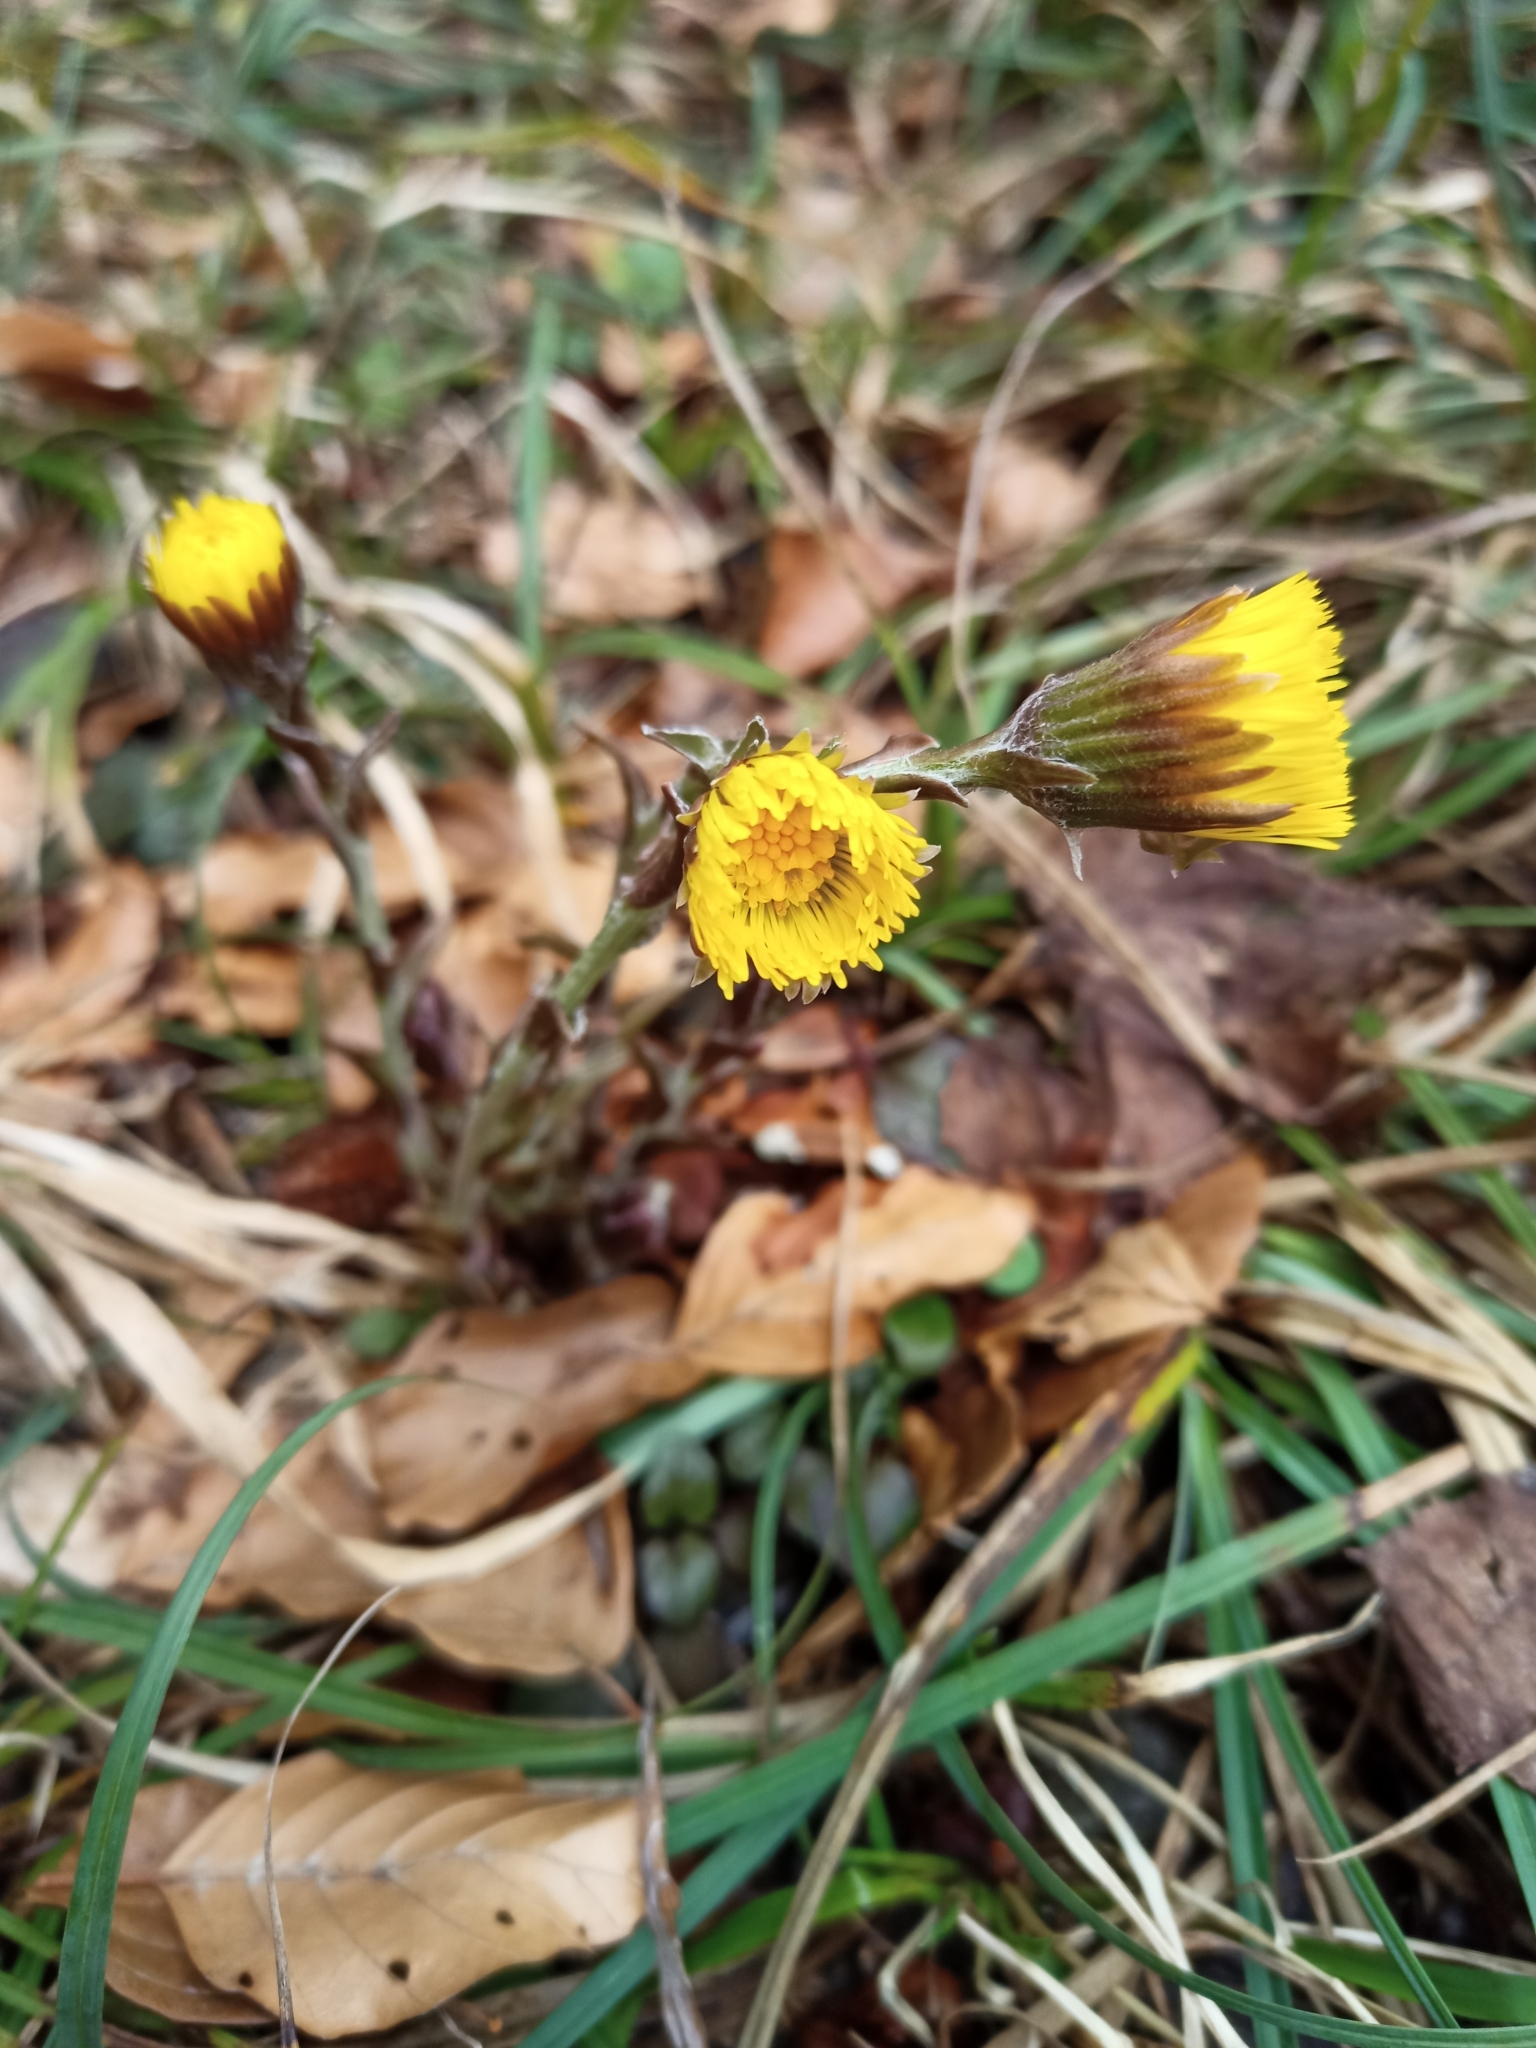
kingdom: Plantae
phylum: Tracheophyta
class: Magnoliopsida
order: Asterales
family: Asteraceae
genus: Tussilago
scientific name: Tussilago farfara
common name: Coltsfoot
